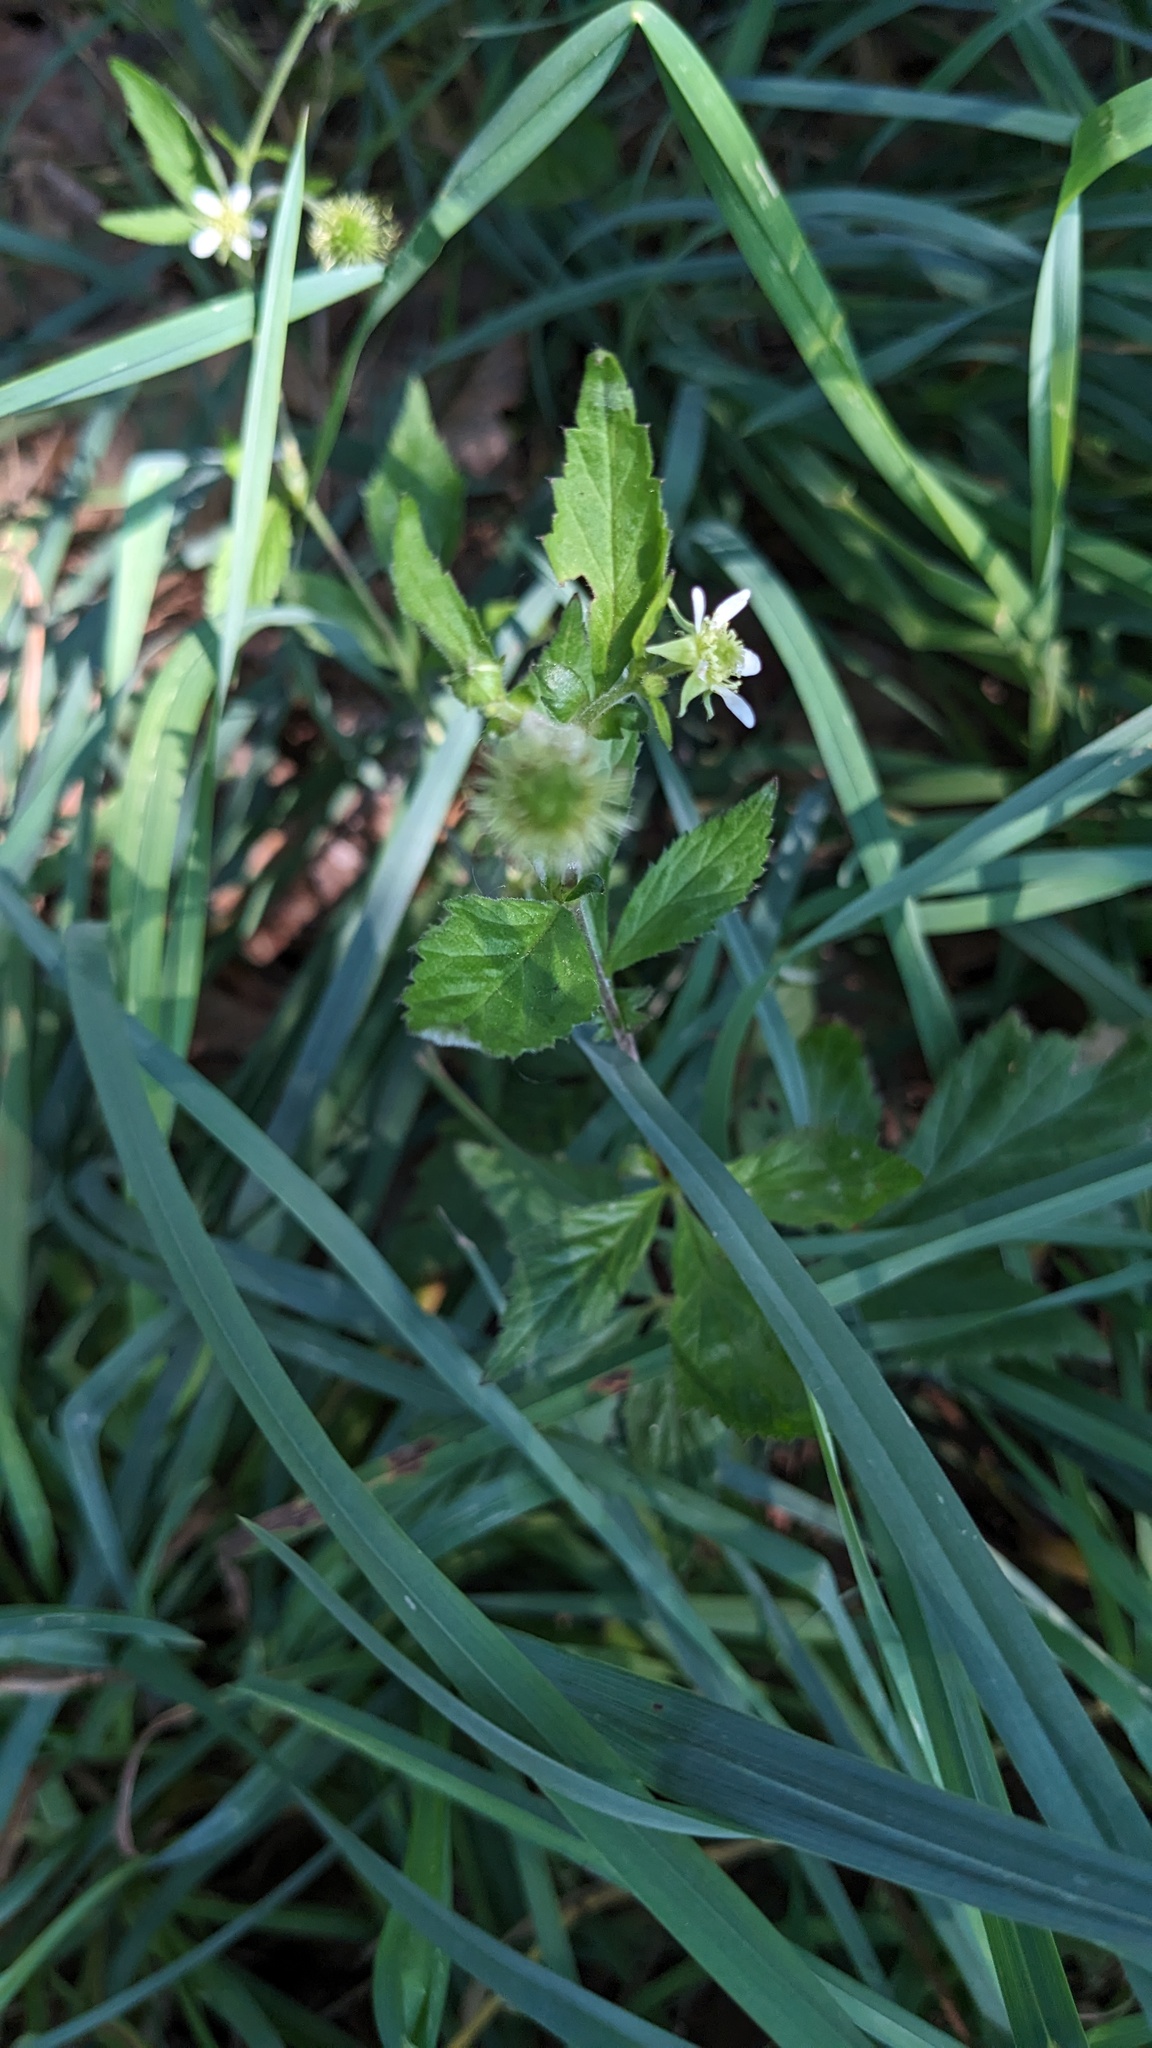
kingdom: Plantae
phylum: Tracheophyta
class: Magnoliopsida
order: Rosales
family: Rosaceae
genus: Geum
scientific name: Geum canadense
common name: White avens
